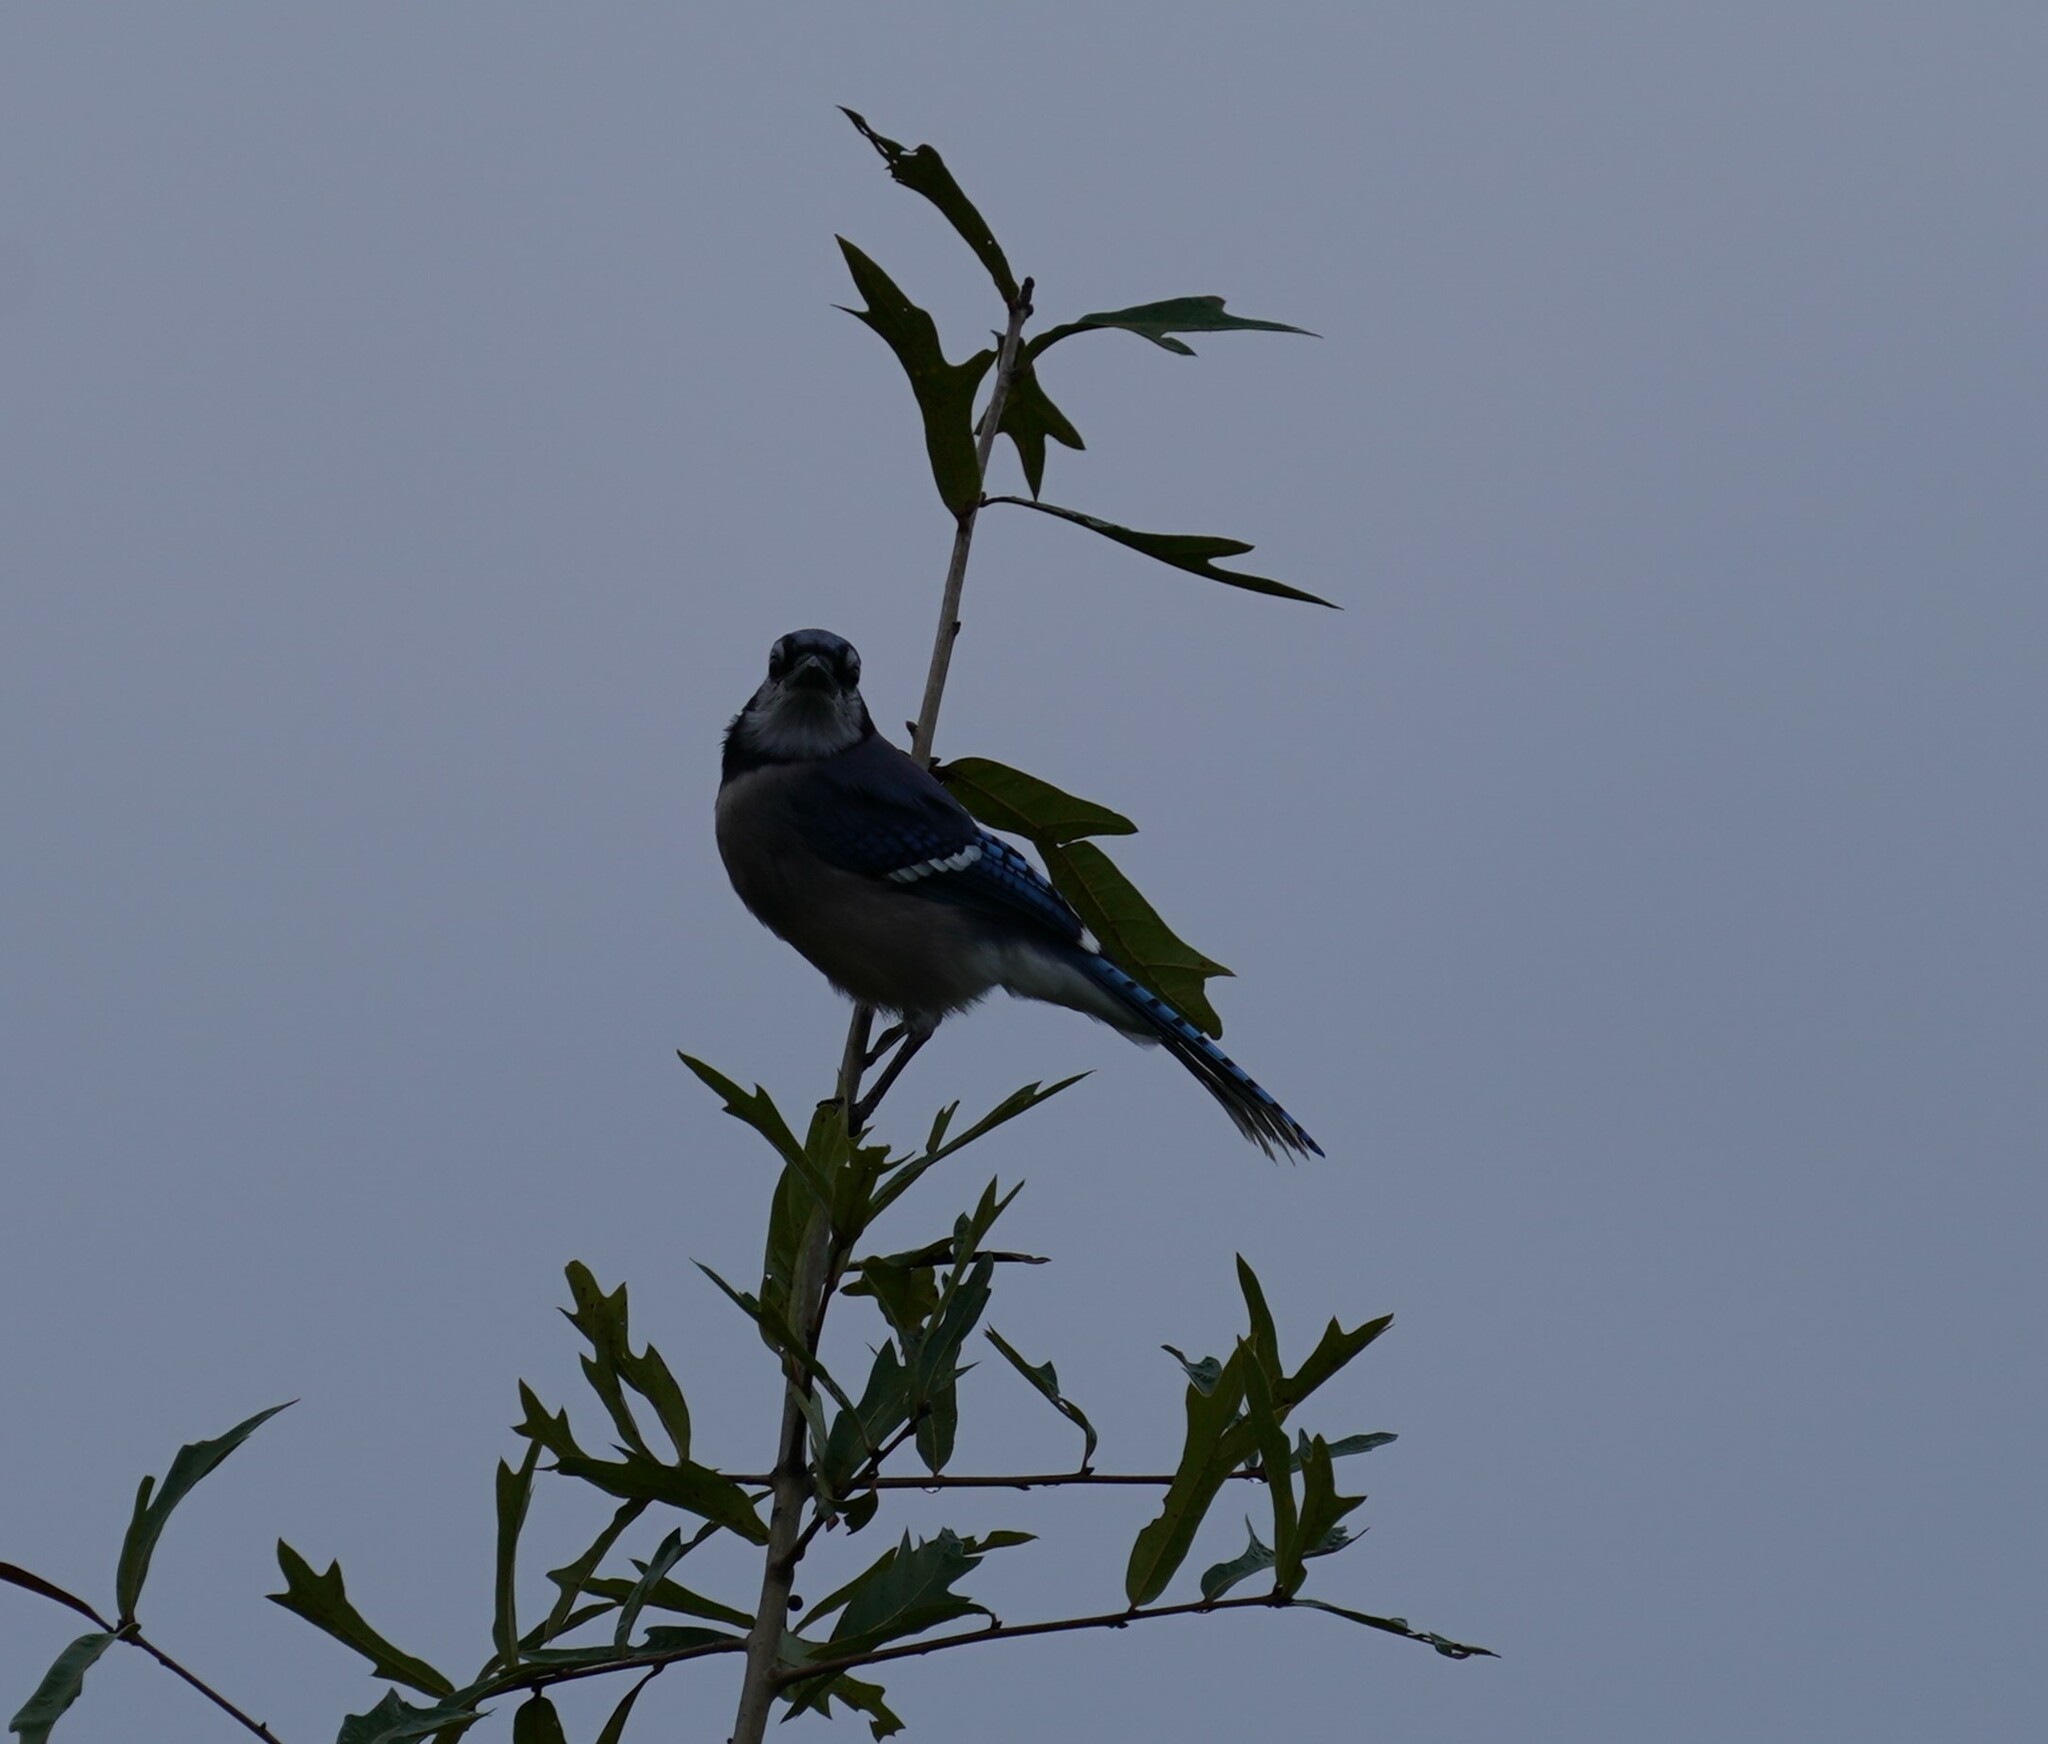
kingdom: Animalia
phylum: Chordata
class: Aves
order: Passeriformes
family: Corvidae
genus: Cyanocitta
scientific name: Cyanocitta cristata
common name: Blue jay
